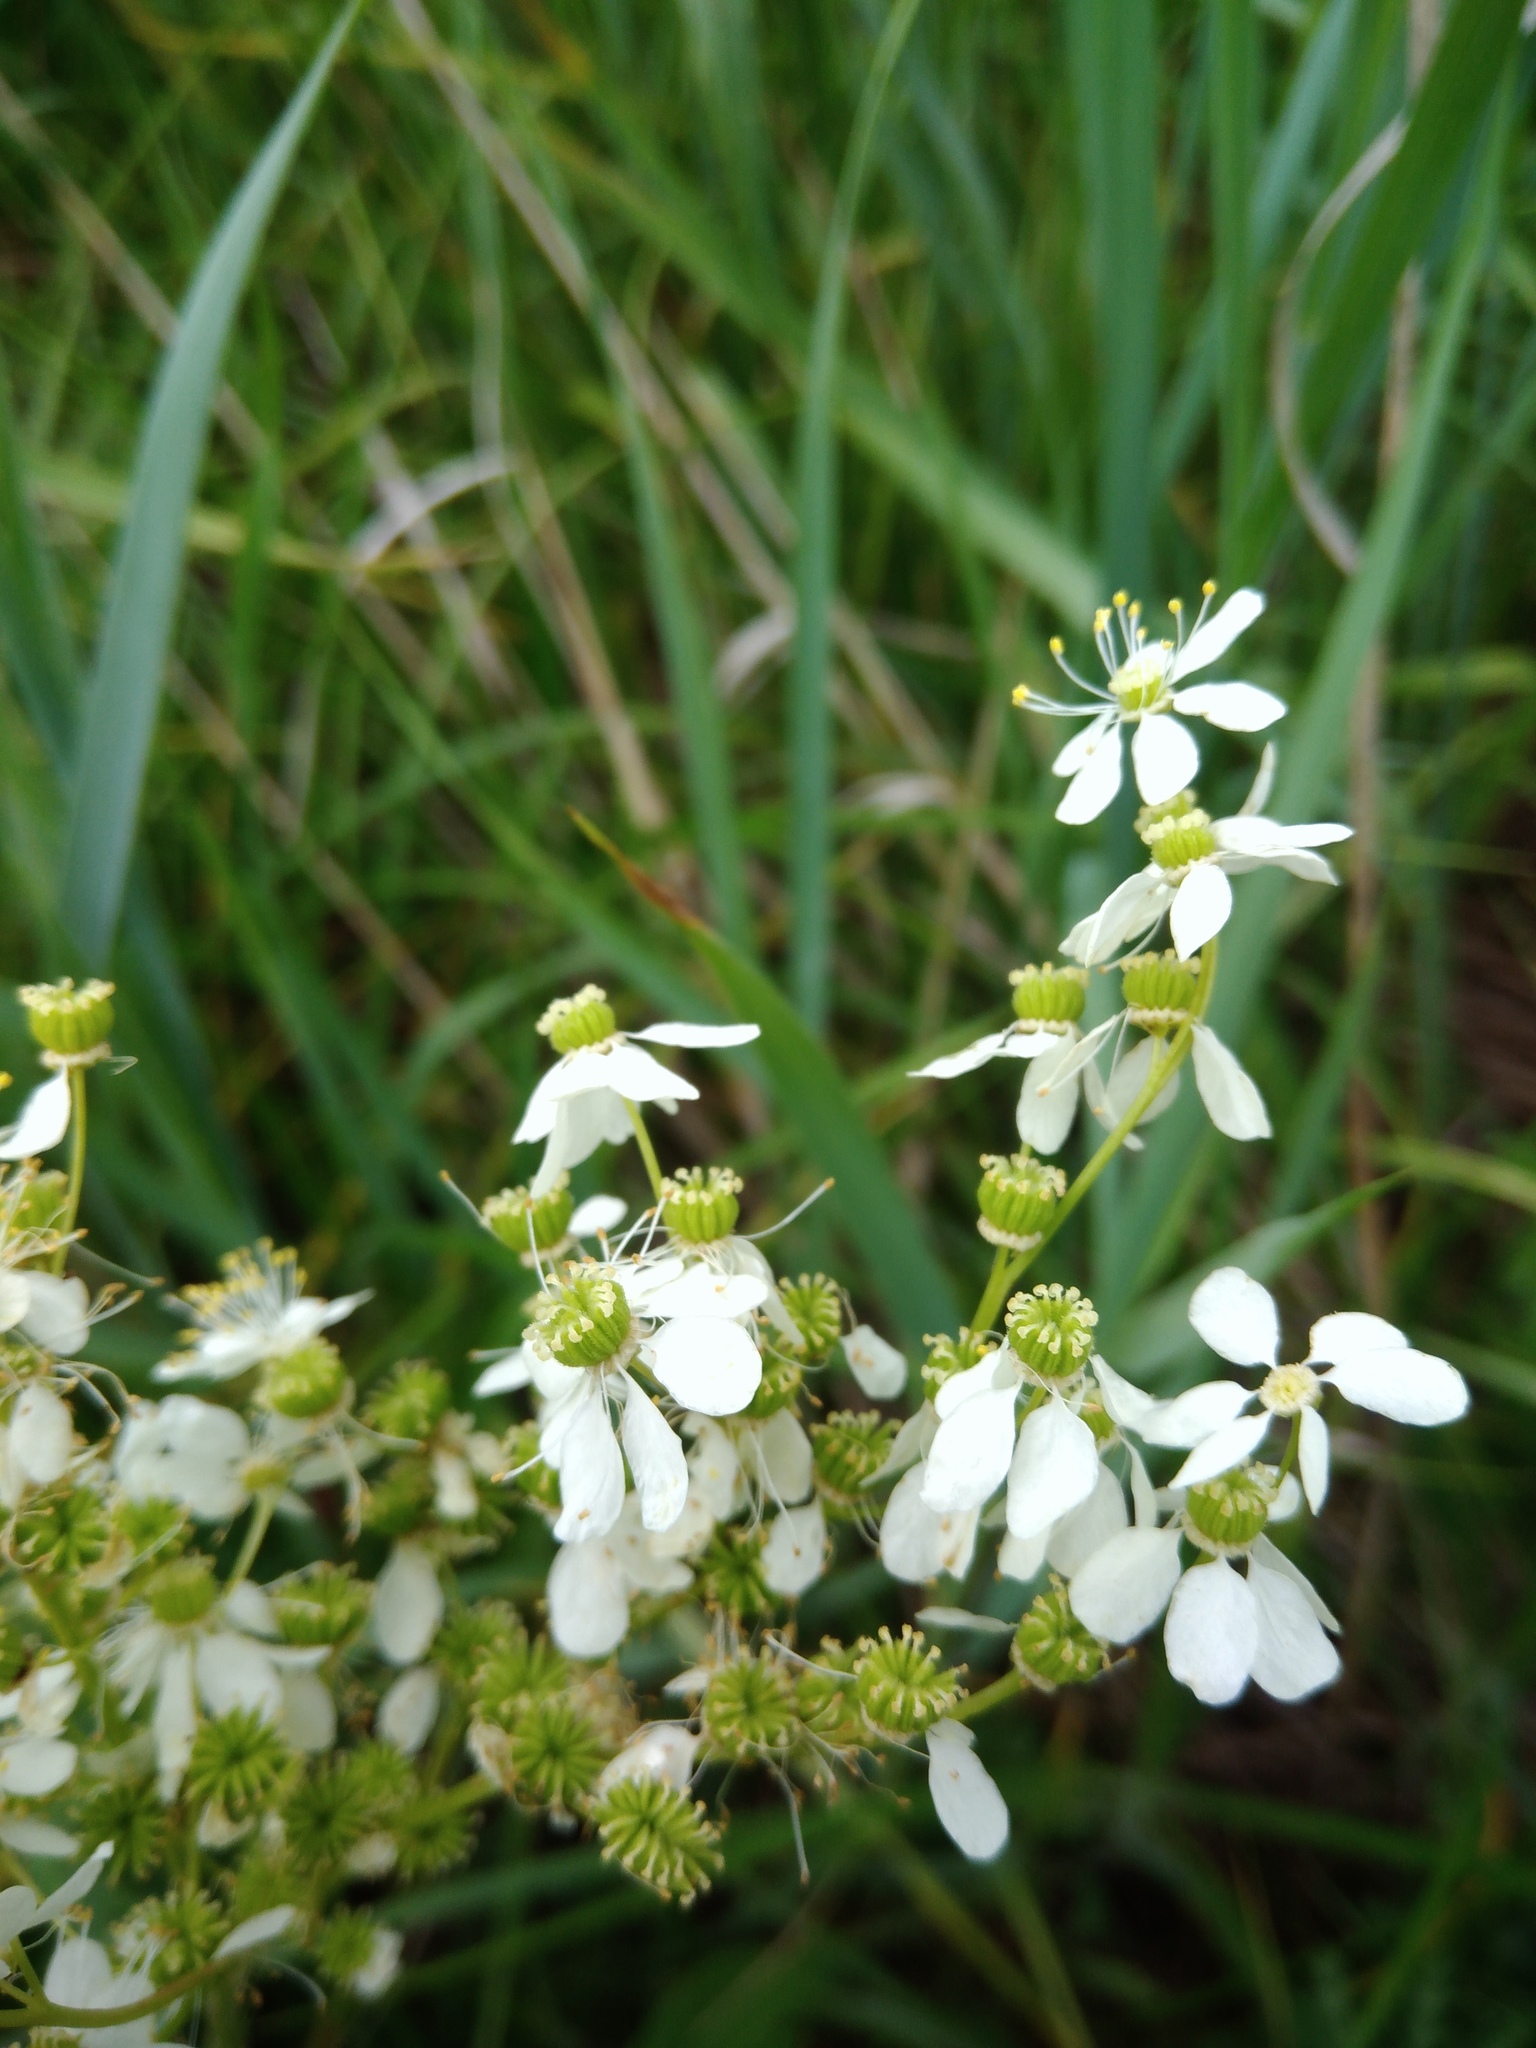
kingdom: Plantae
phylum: Tracheophyta
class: Magnoliopsida
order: Rosales
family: Rosaceae
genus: Filipendula
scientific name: Filipendula vulgaris
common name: Dropwort
